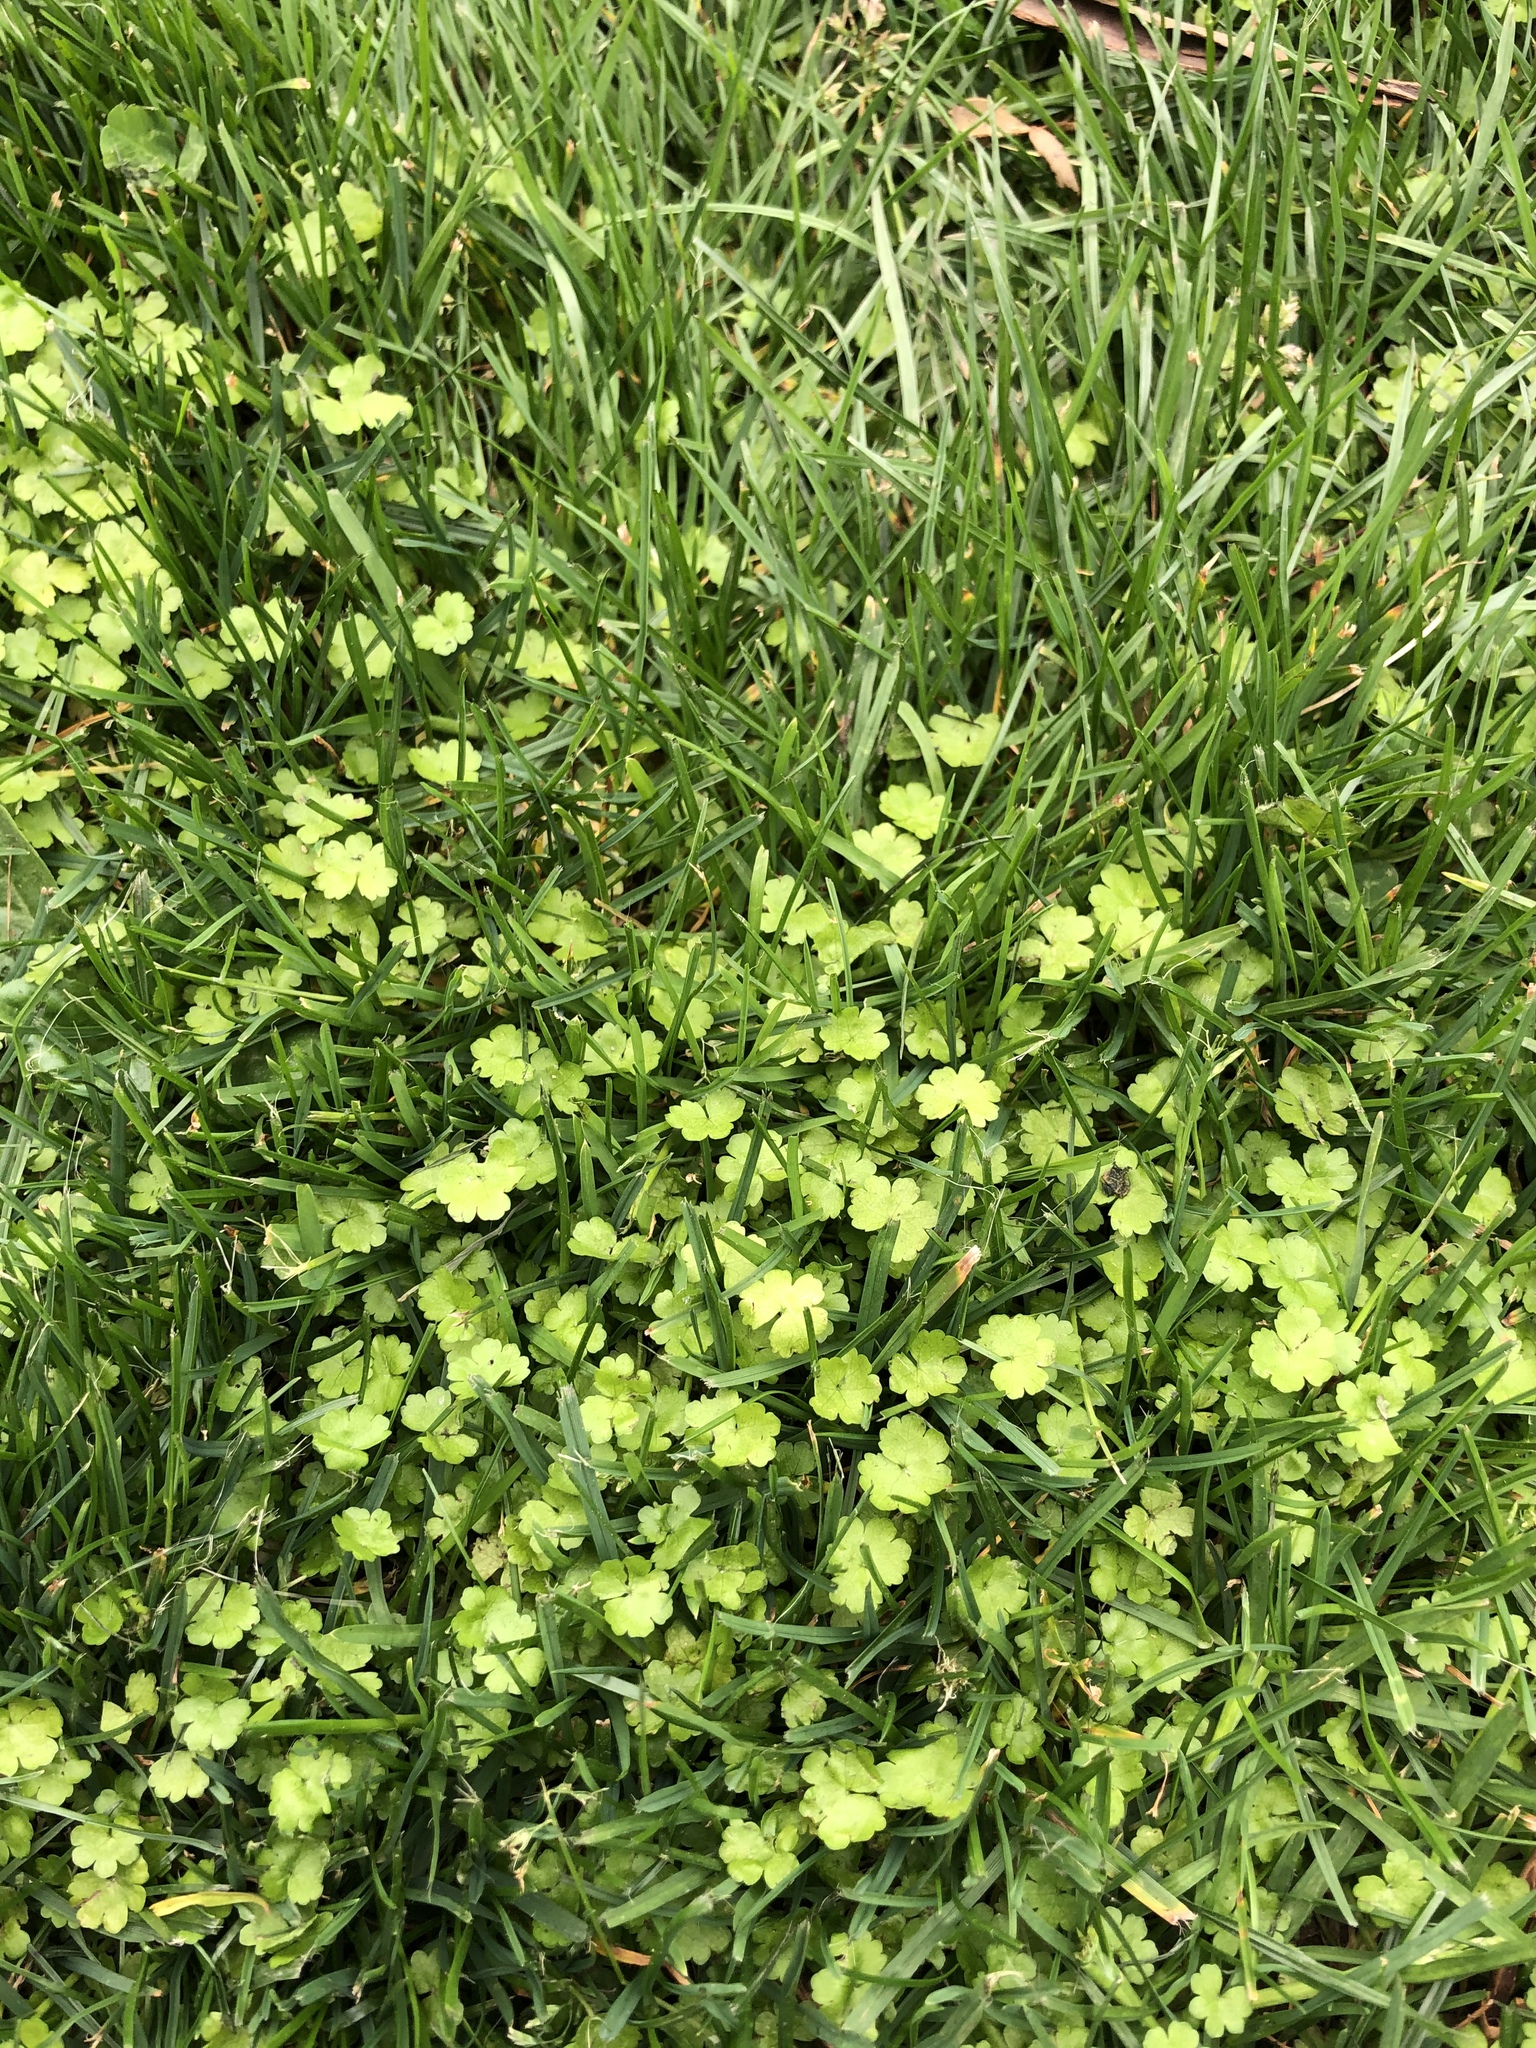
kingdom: Plantae
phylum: Tracheophyta
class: Magnoliopsida
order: Apiales
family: Araliaceae
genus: Hydrocotyle
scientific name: Hydrocotyle heteromeria
